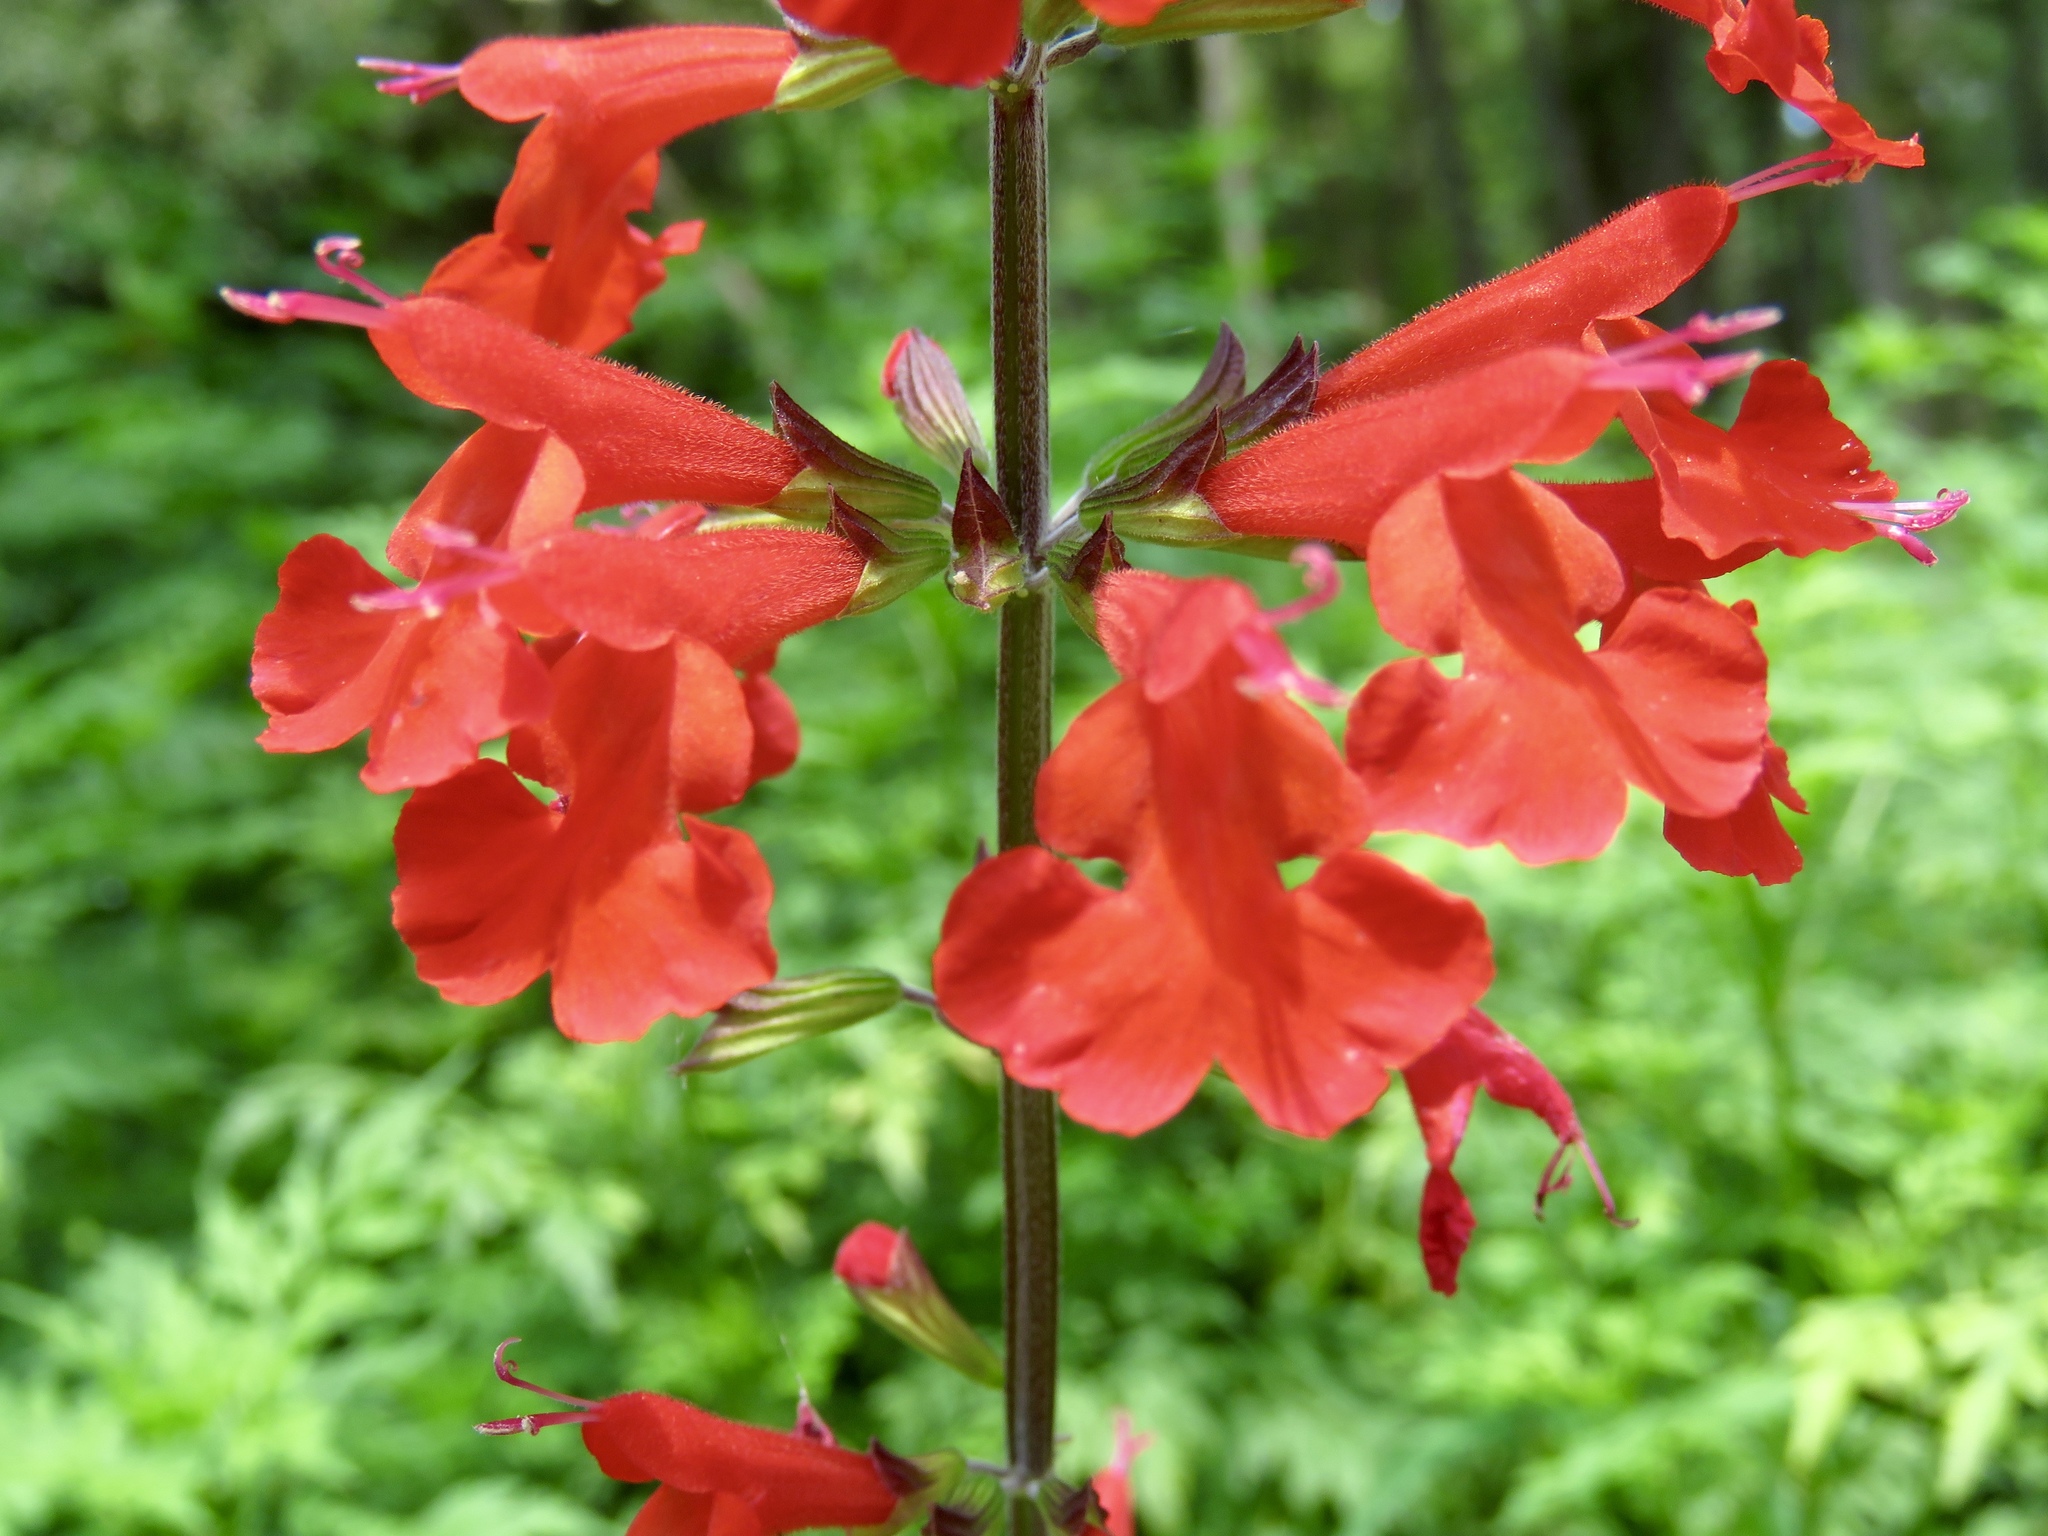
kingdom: Plantae
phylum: Tracheophyta
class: Magnoliopsida
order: Lamiales
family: Lamiaceae
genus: Salvia
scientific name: Salvia coccinea
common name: Blood sage
